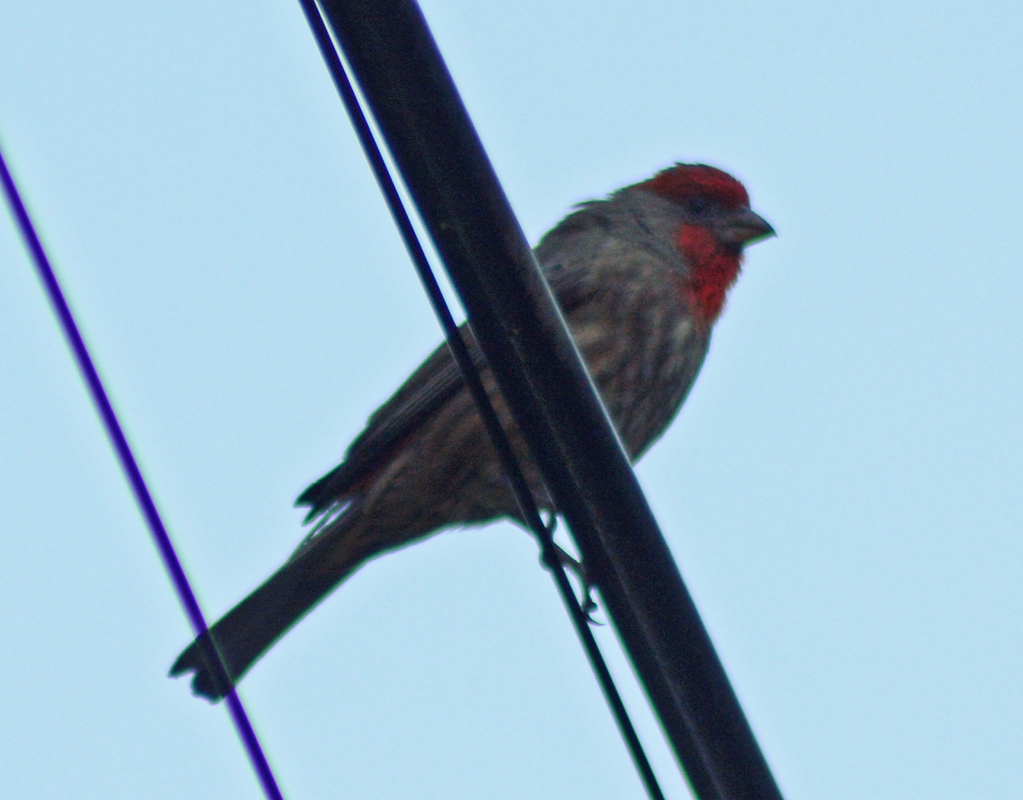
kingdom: Animalia
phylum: Chordata
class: Aves
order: Passeriformes
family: Fringillidae
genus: Haemorhous
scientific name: Haemorhous mexicanus
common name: House finch
